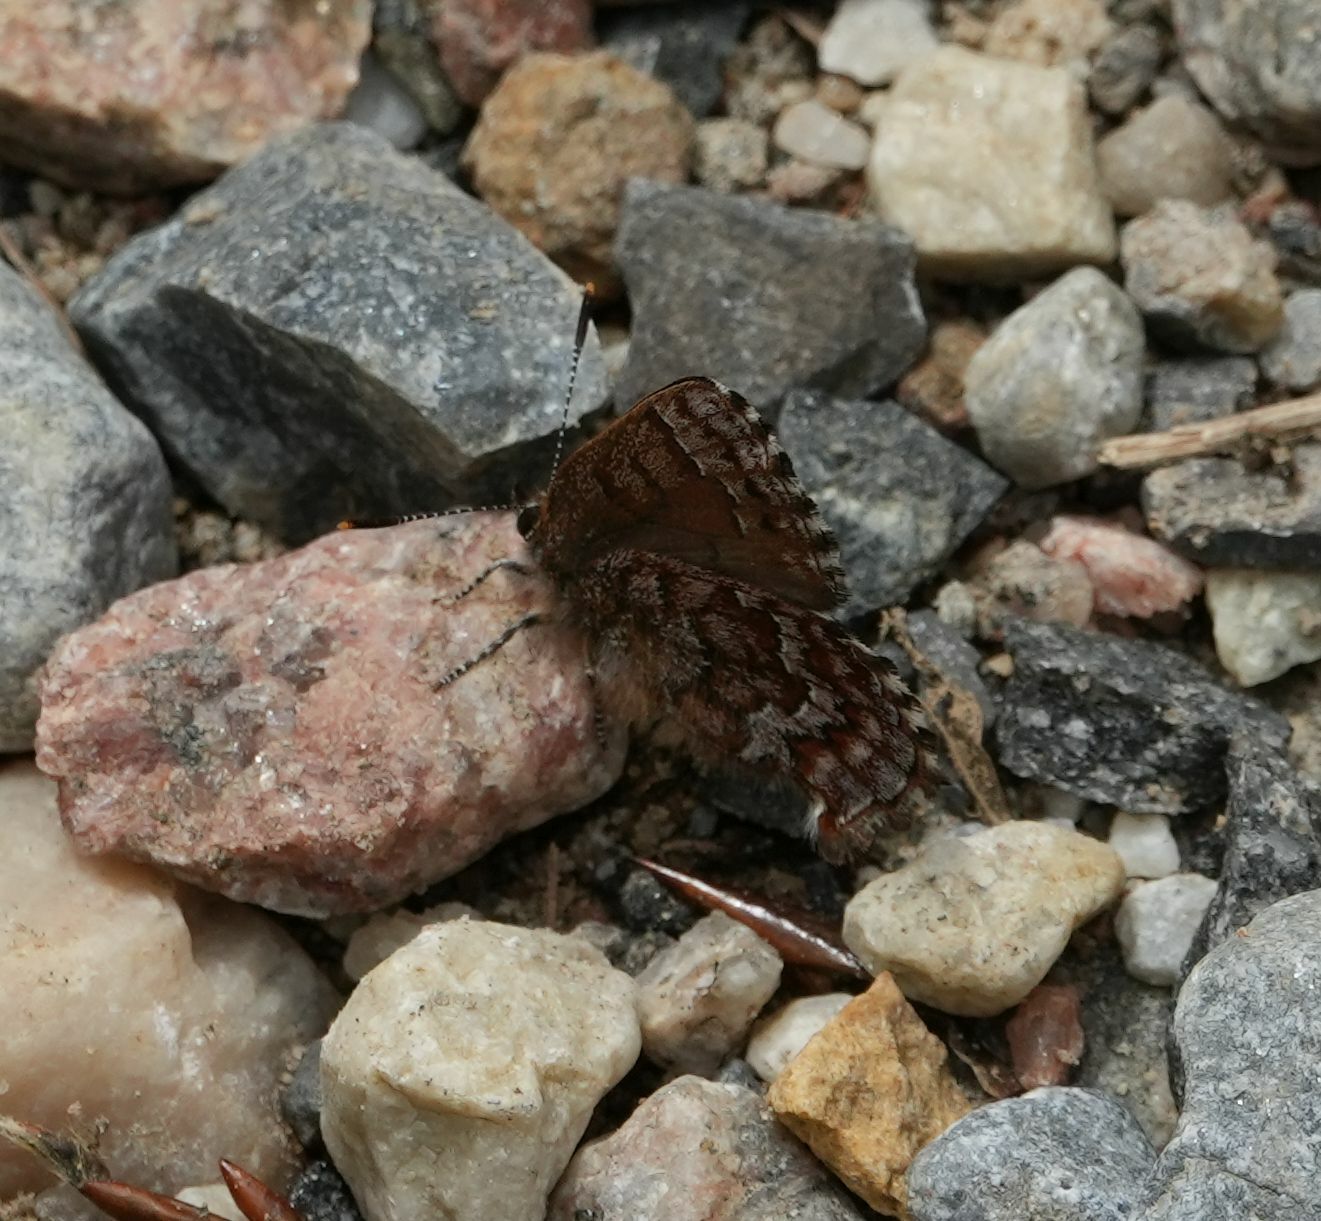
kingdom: Animalia
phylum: Arthropoda
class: Insecta
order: Lepidoptera
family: Lycaenidae
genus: Incisalia
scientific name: Incisalia niphon
